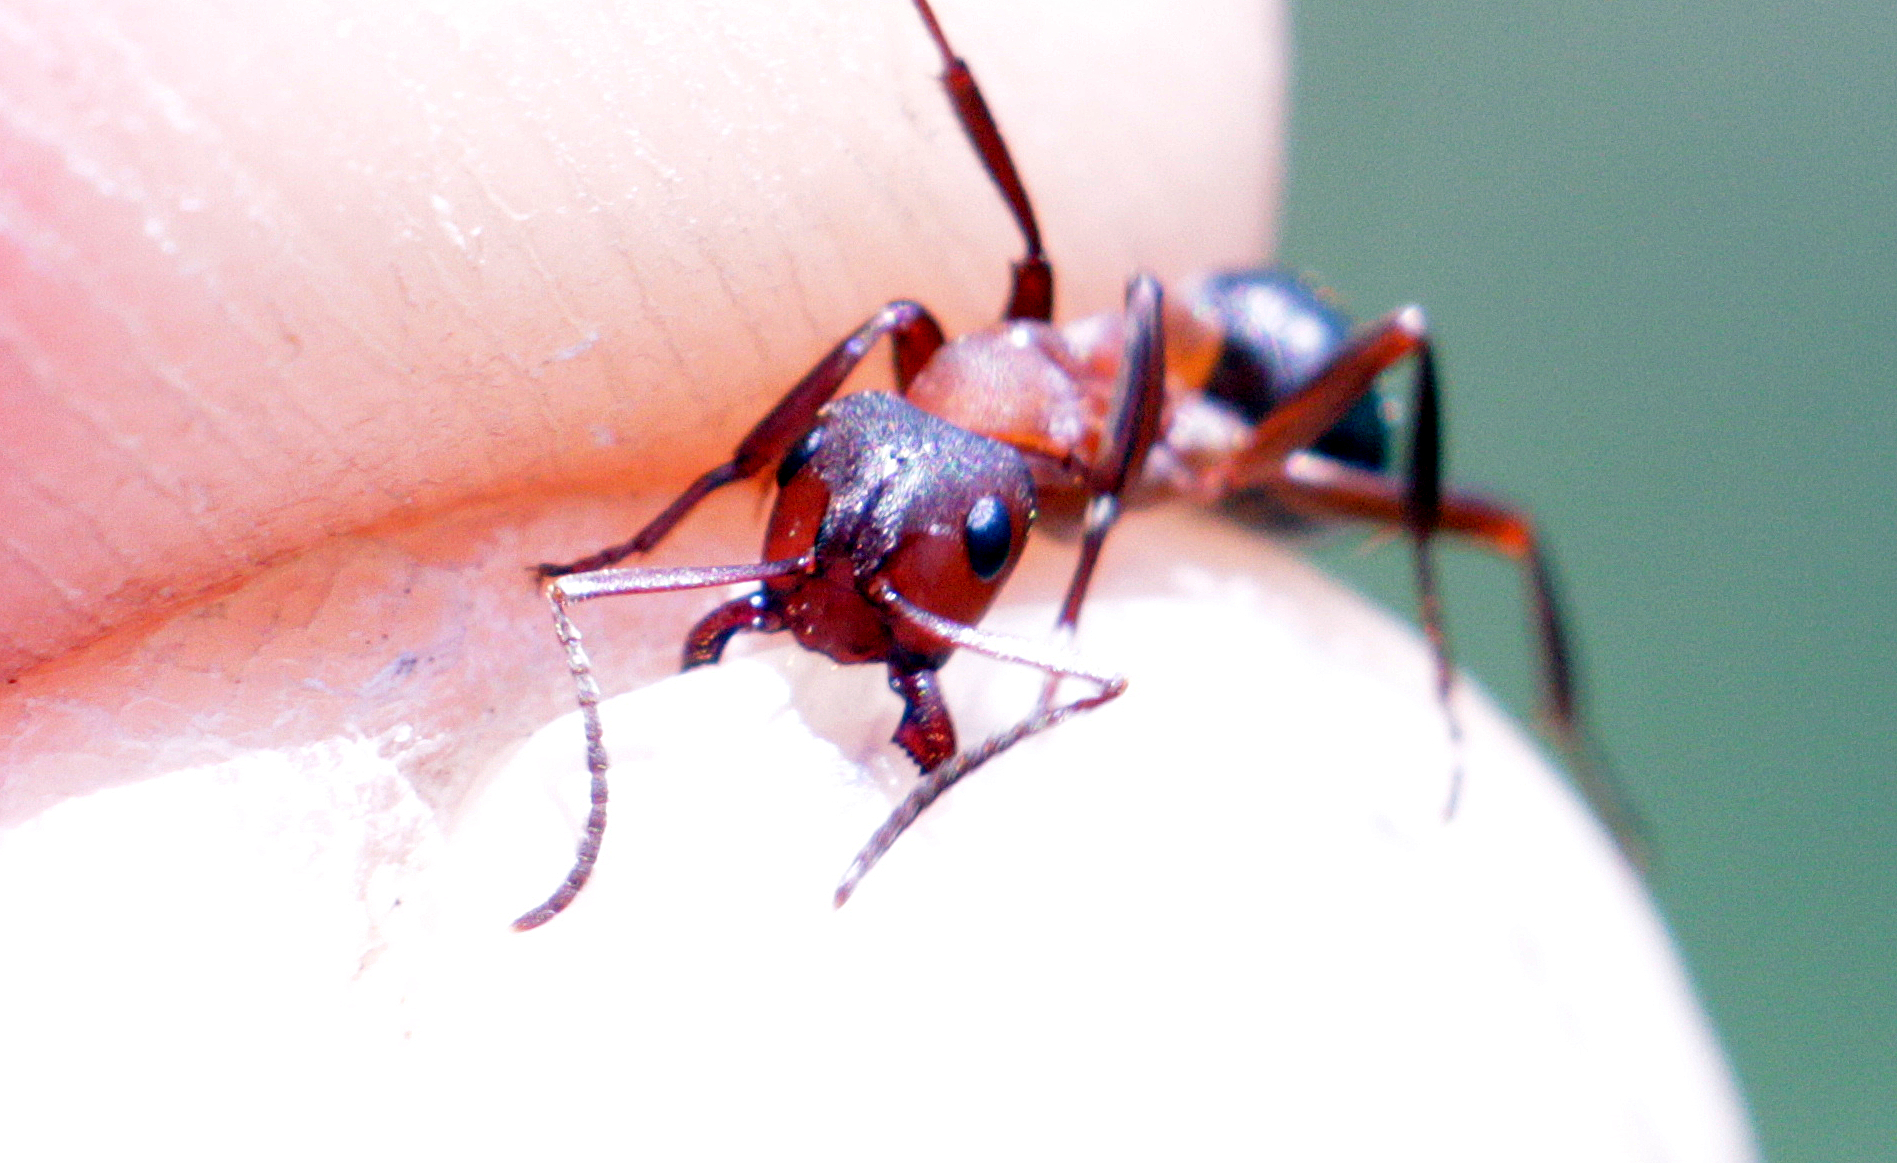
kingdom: Animalia
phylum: Arthropoda
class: Insecta
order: Hymenoptera
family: Formicidae
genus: Formica
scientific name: Formica sanguinea
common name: Blood-red ant
